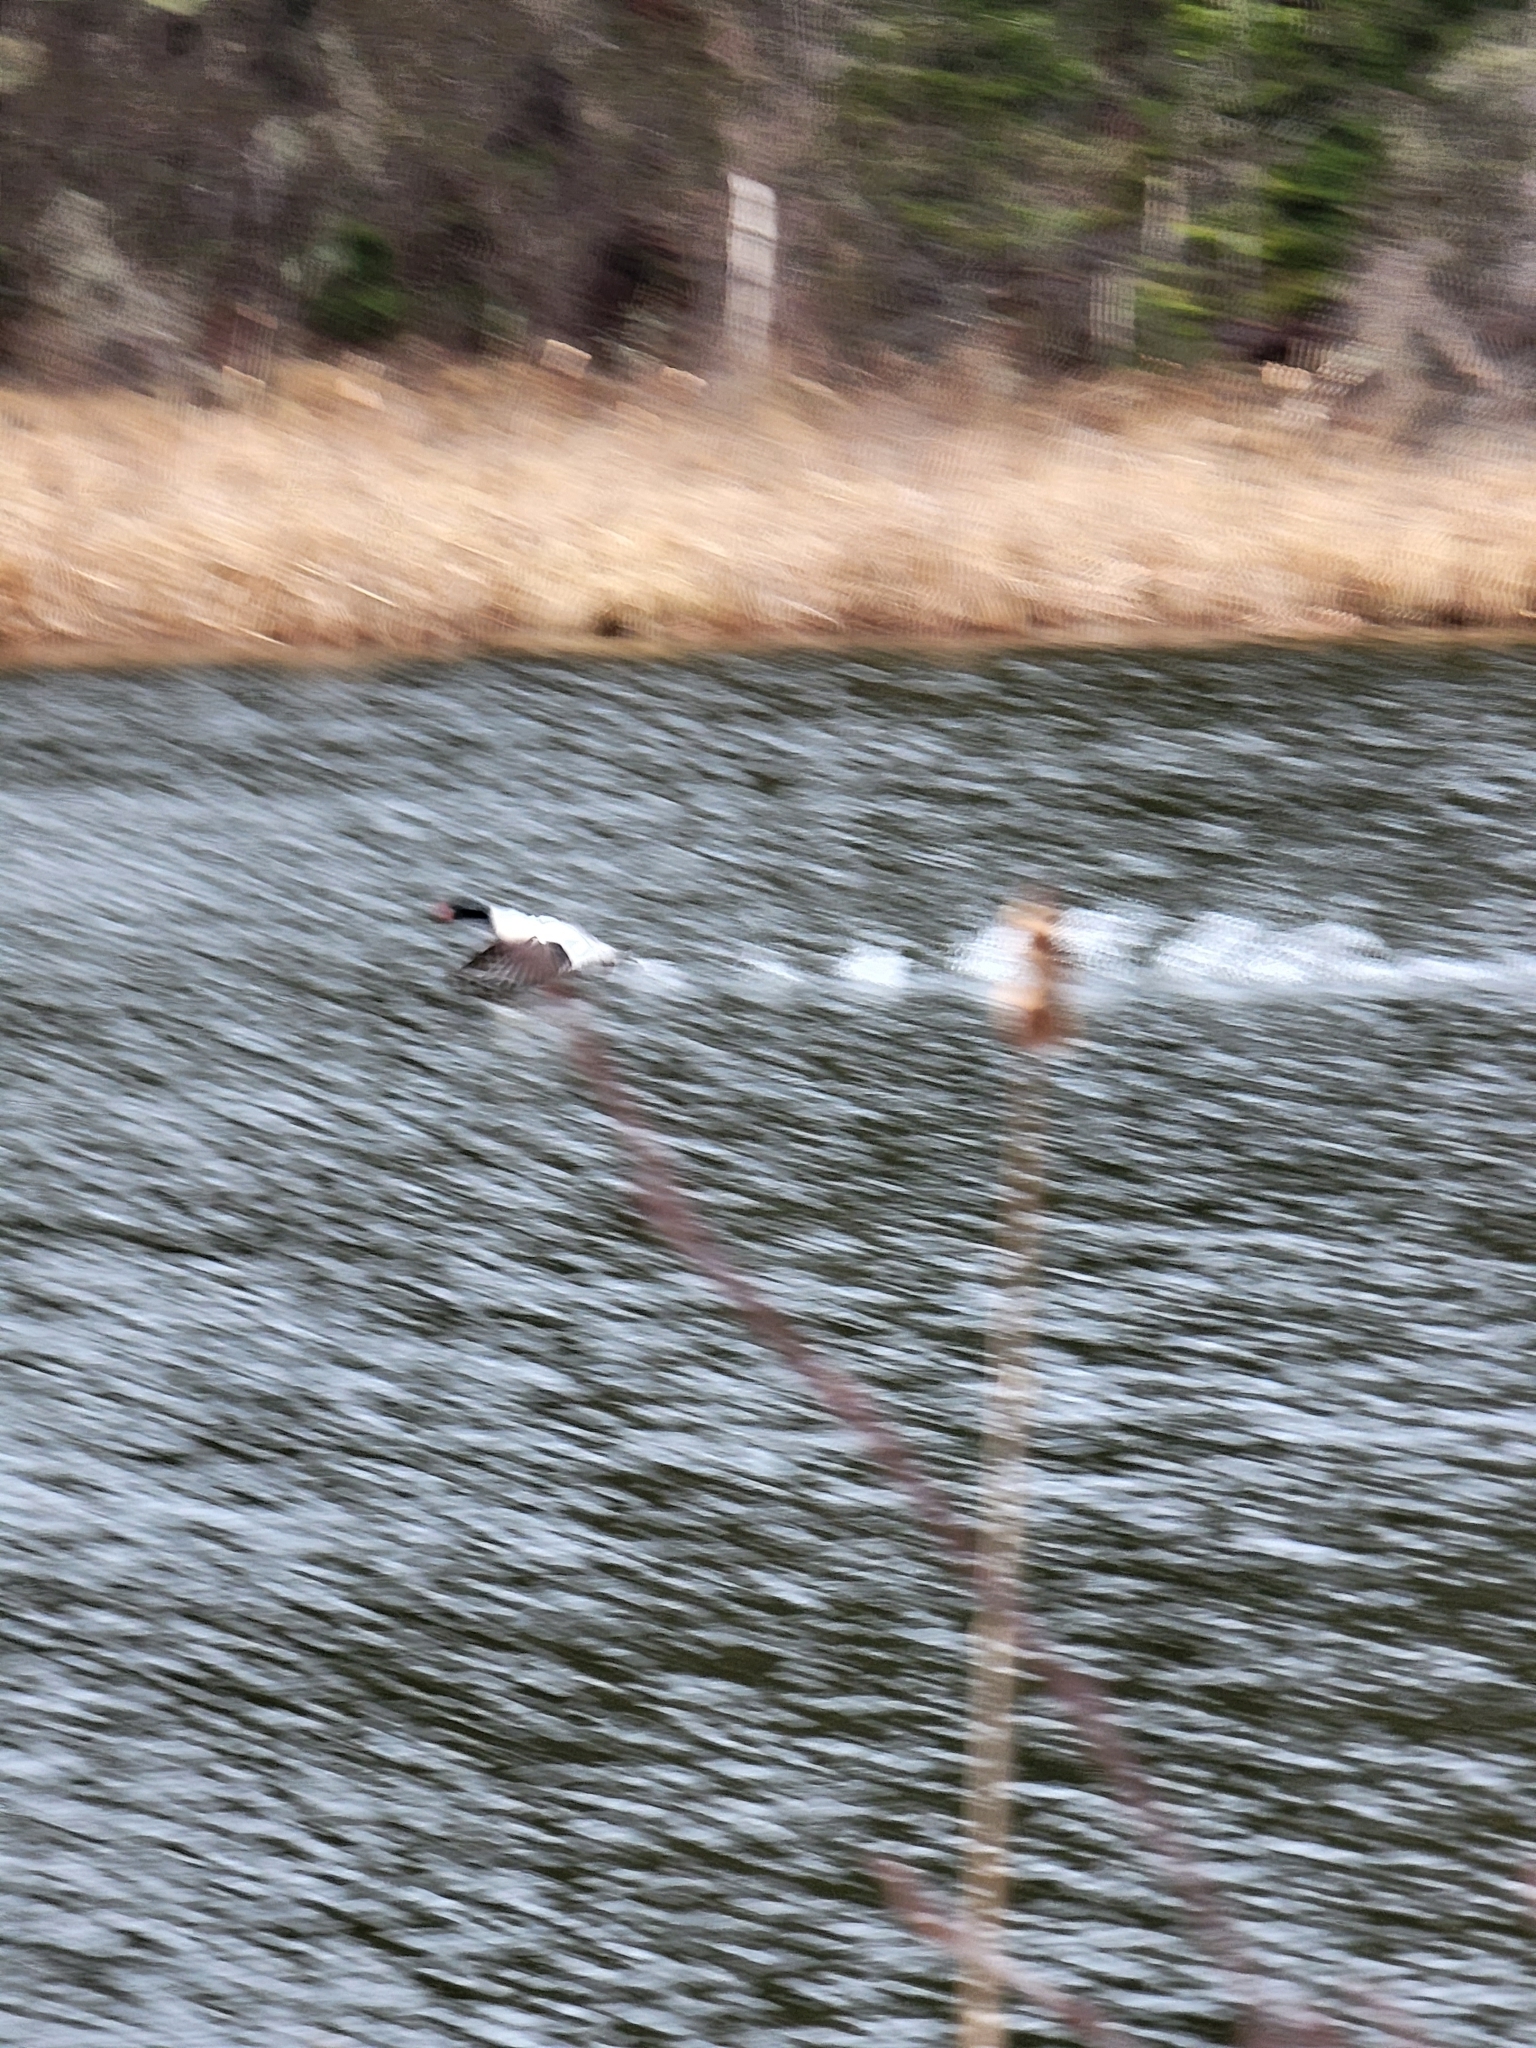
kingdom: Animalia
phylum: Chordata
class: Aves
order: Anseriformes
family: Anatidae
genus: Mergus
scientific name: Mergus merganser
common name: Common merganser
